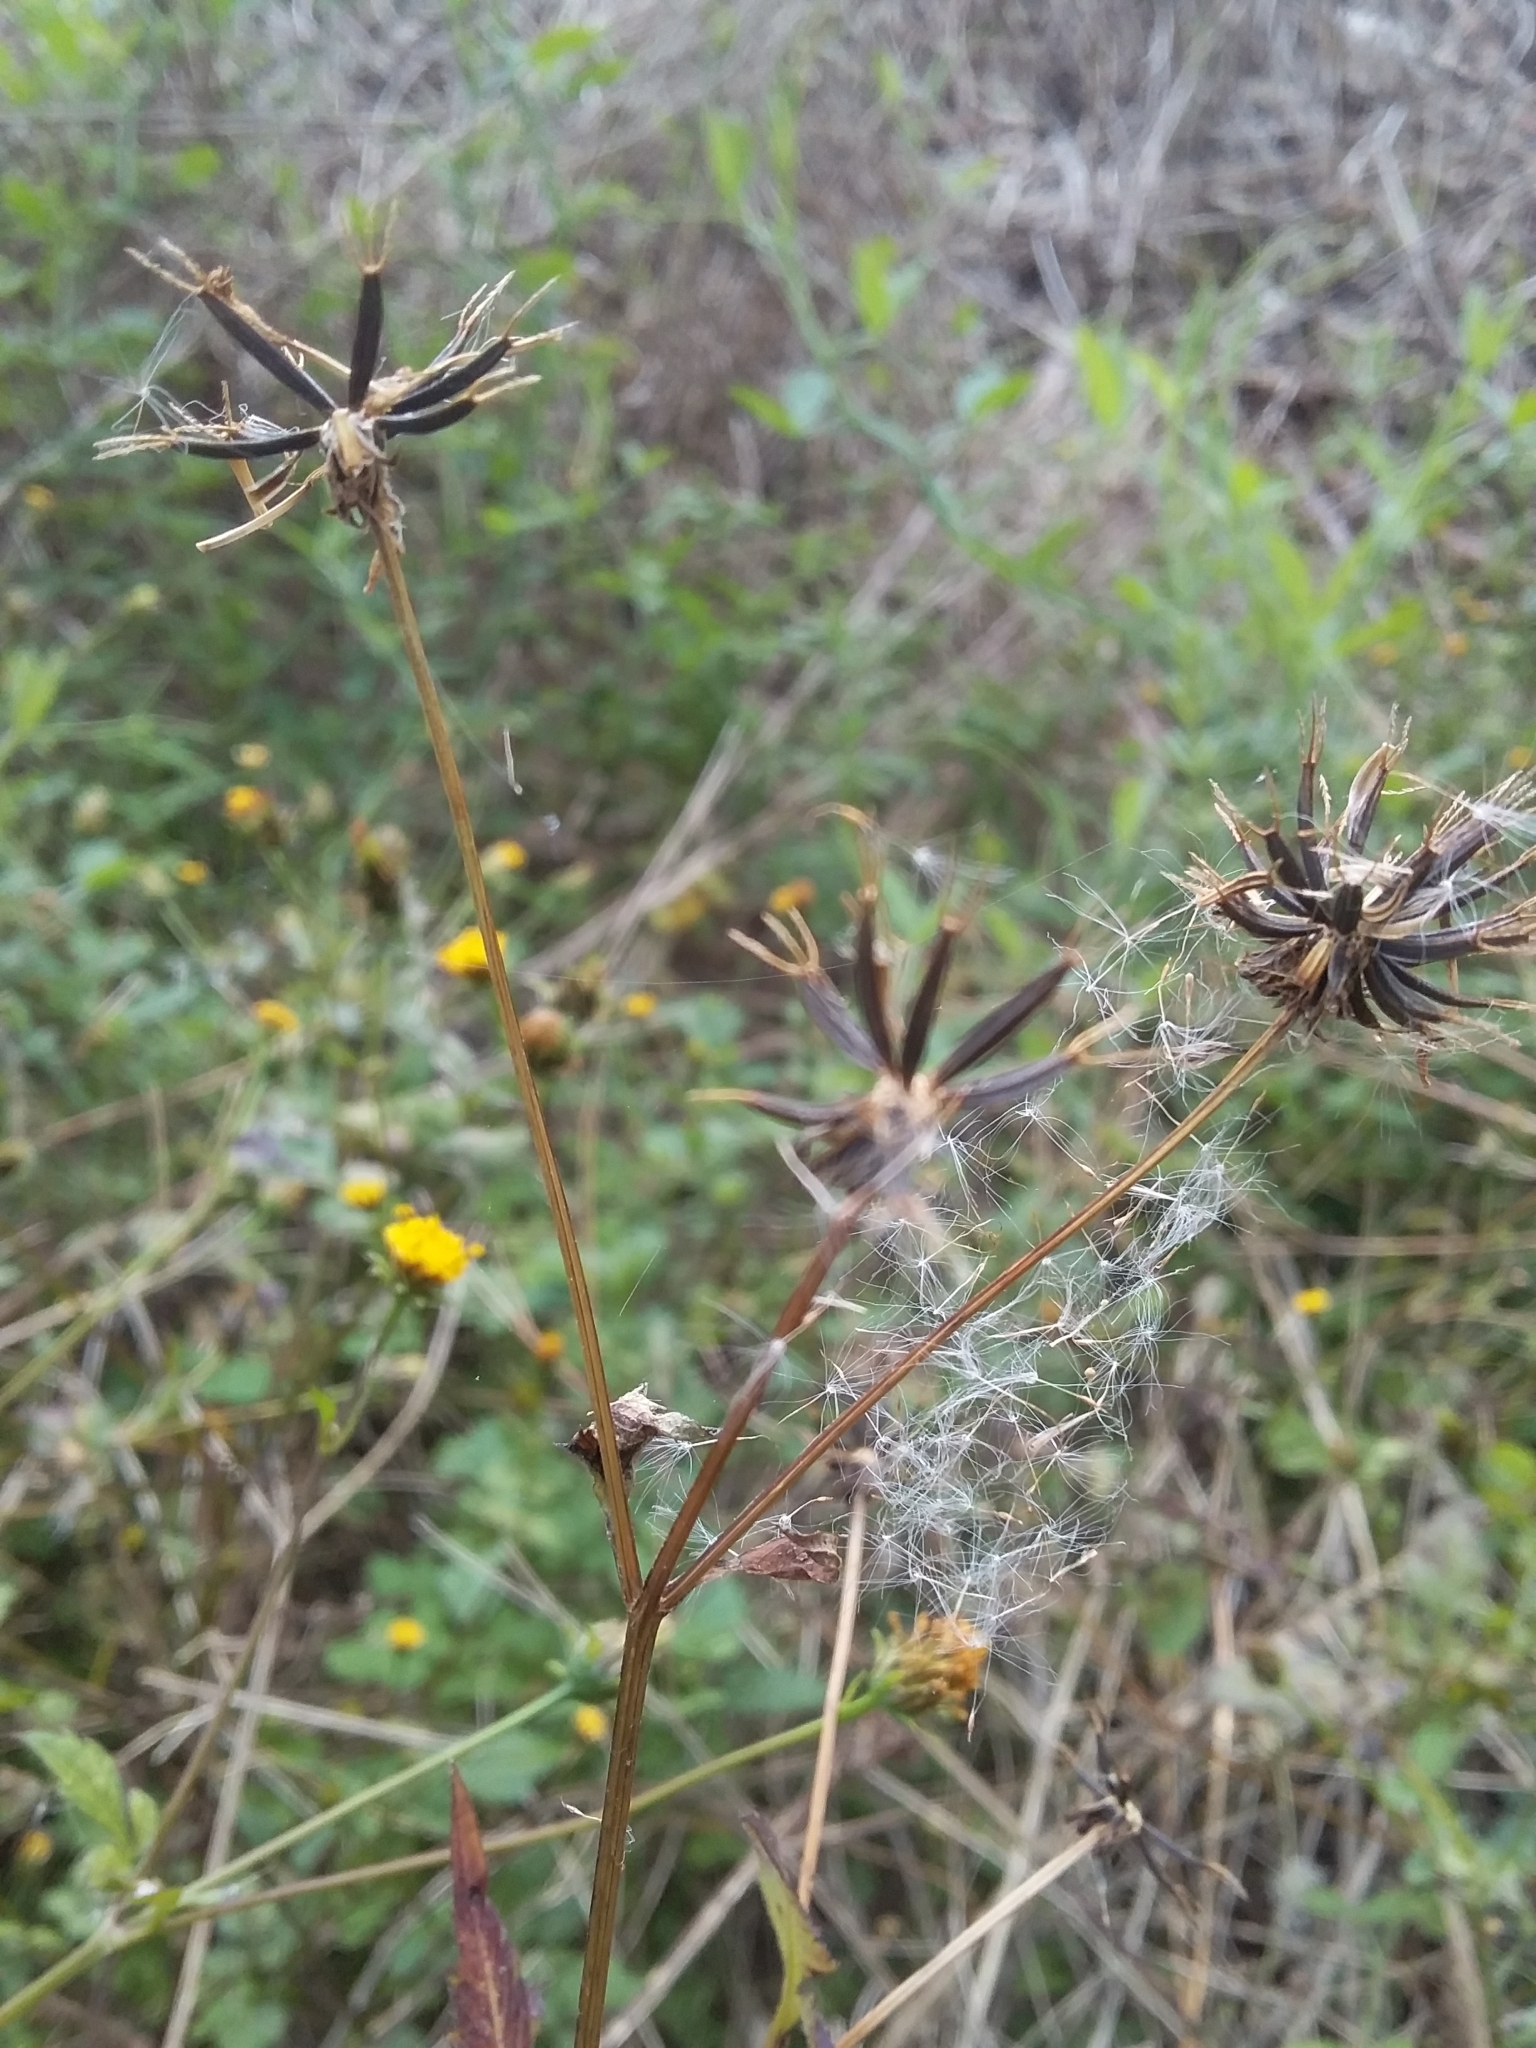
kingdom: Plantae
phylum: Tracheophyta
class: Magnoliopsida
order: Asterales
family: Asteraceae
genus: Bidens
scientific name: Bidens pilosa
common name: Black-jack
